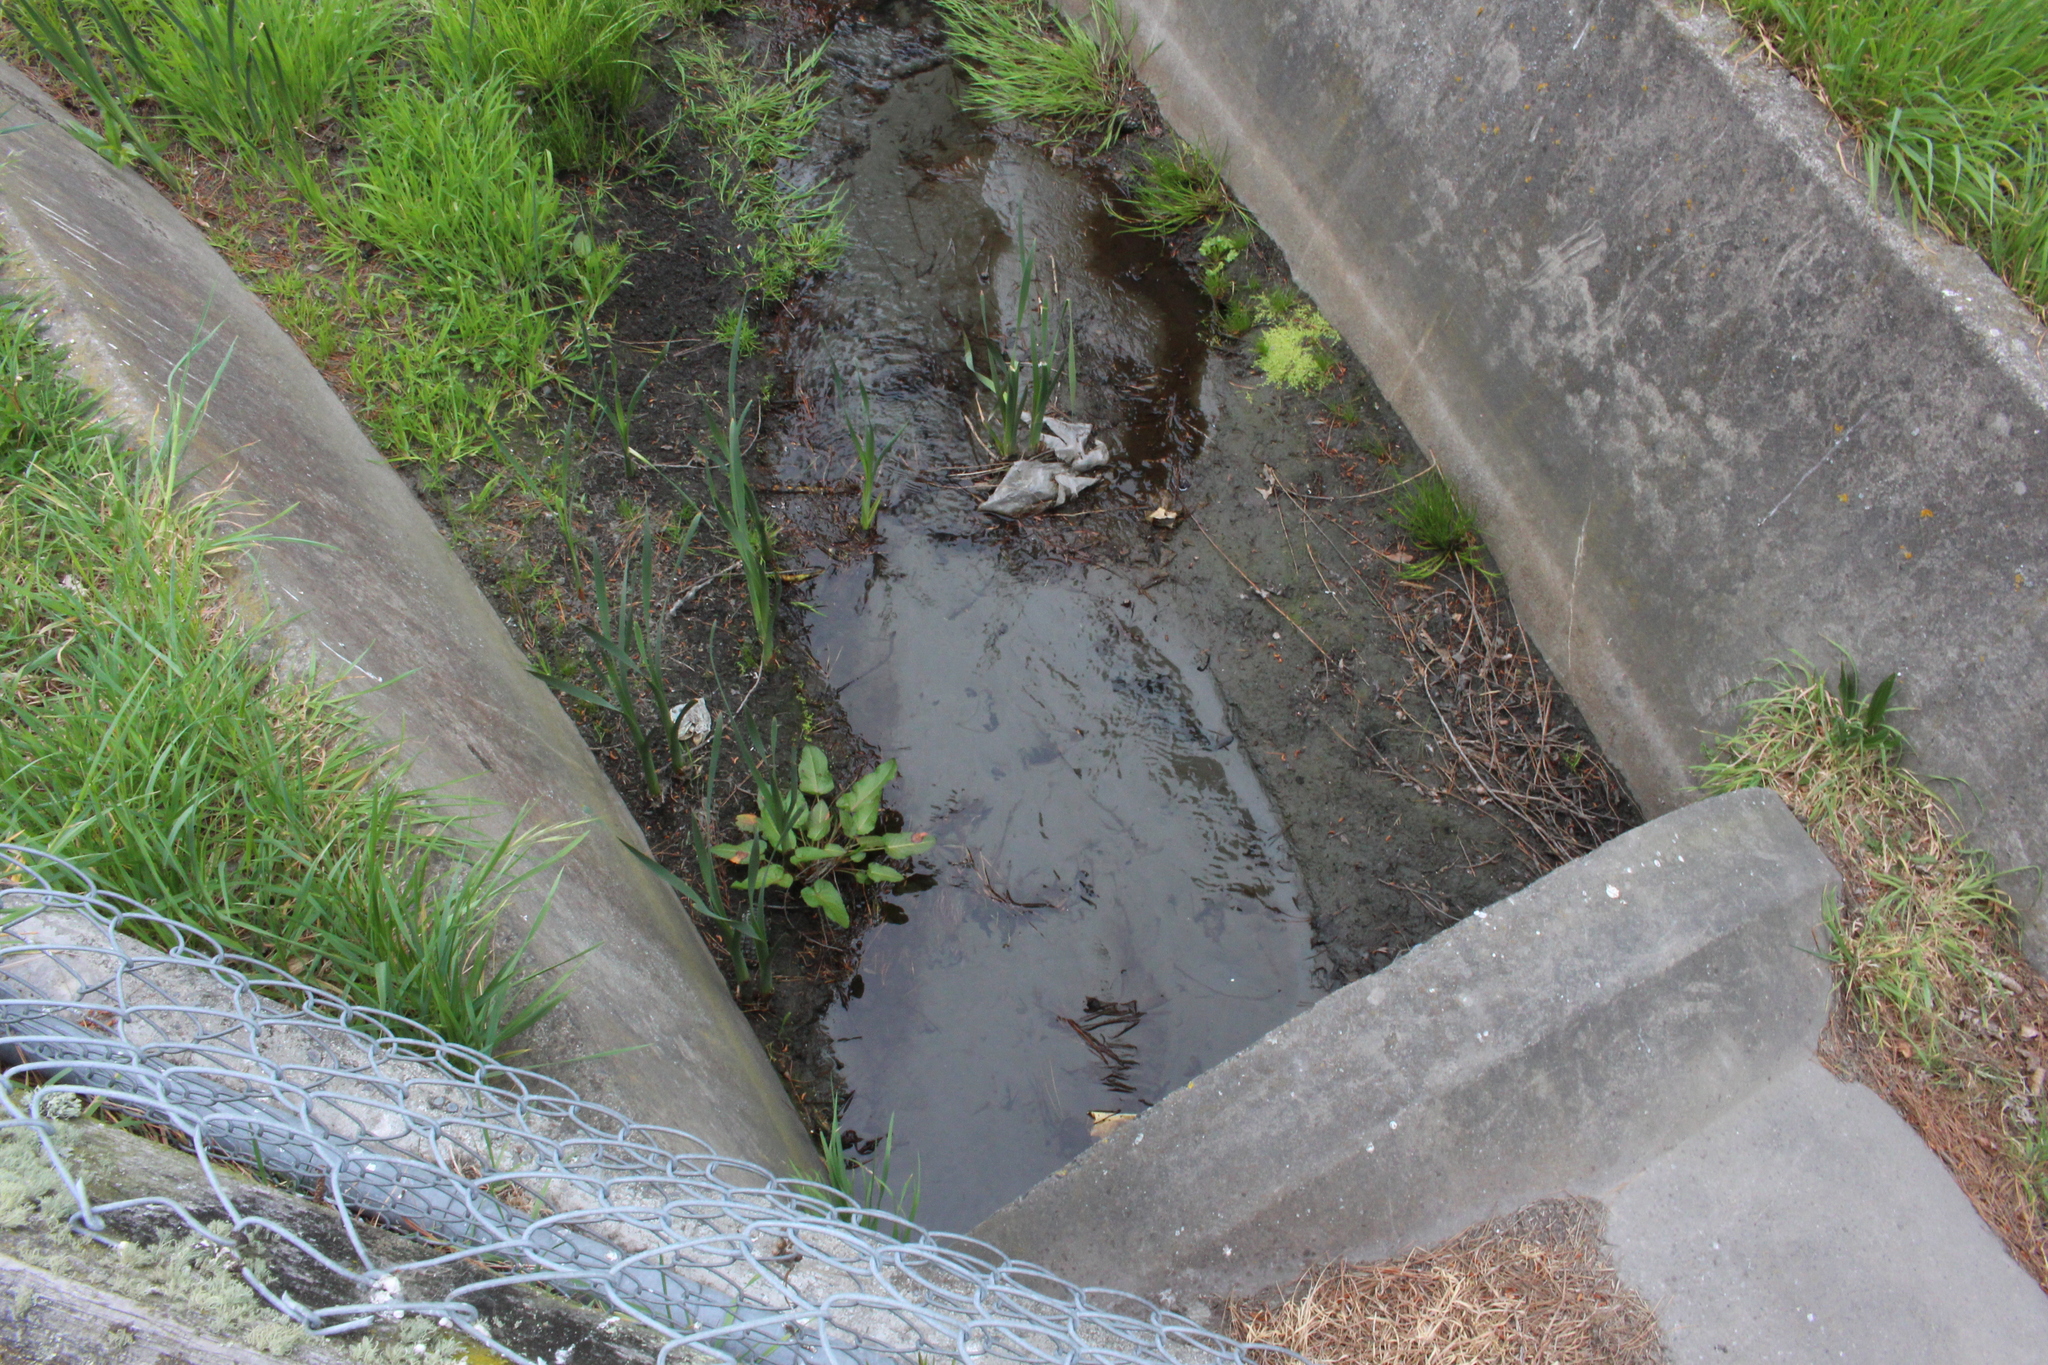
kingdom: Plantae
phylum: Tracheophyta
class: Liliopsida
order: Poales
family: Typhaceae
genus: Typha
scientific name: Typha orientalis
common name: Bullrush
